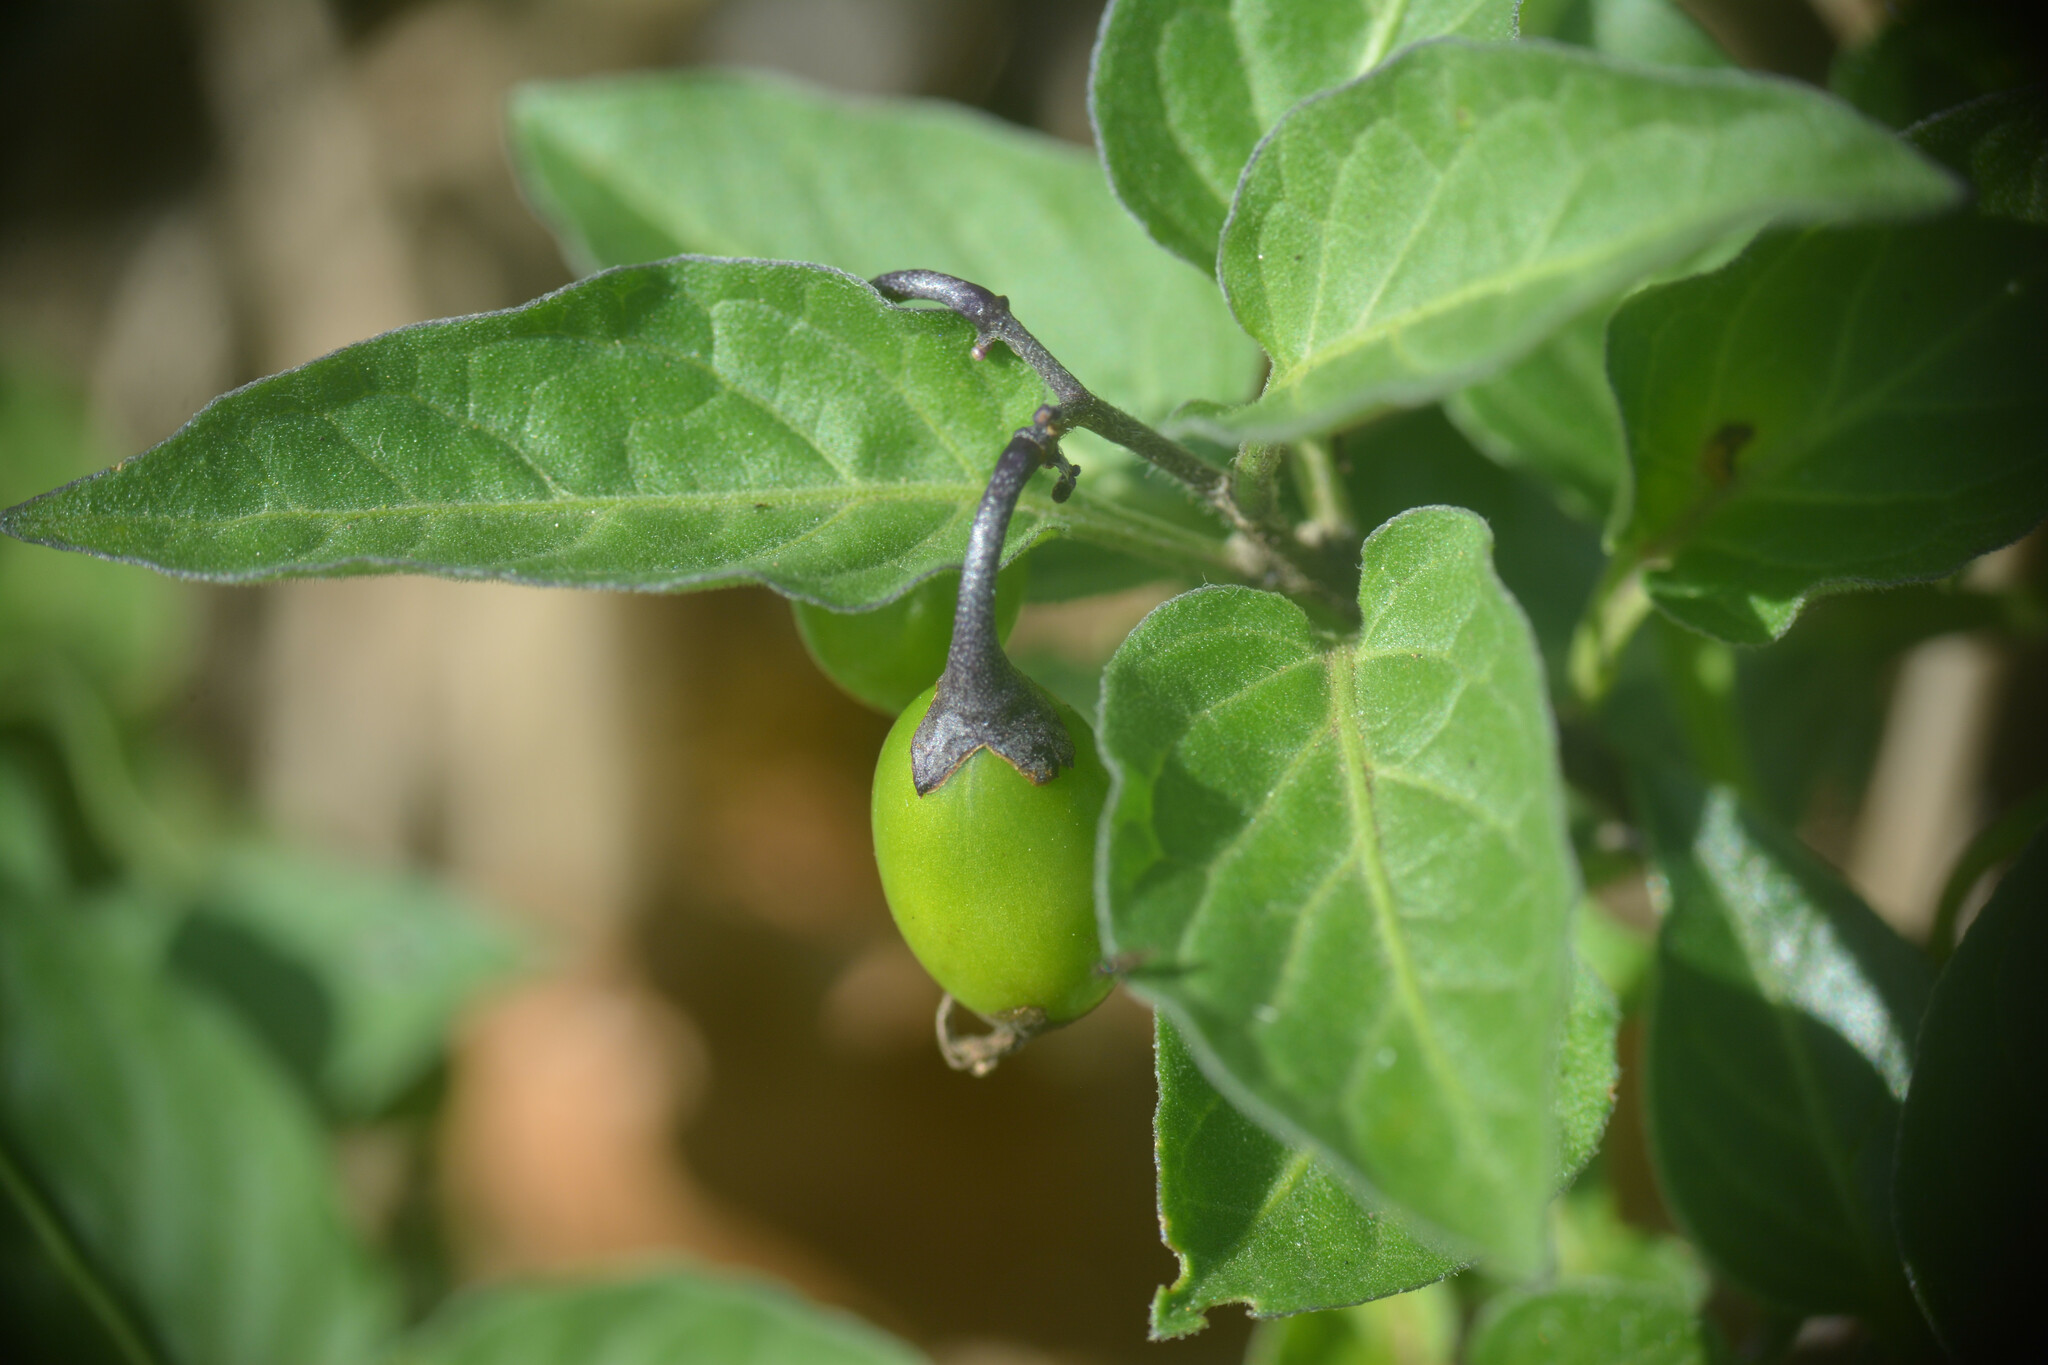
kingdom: Plantae
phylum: Tracheophyta
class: Magnoliopsida
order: Solanales
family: Solanaceae
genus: Solanum
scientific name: Solanum dulcamara
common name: Climbing nightshade
